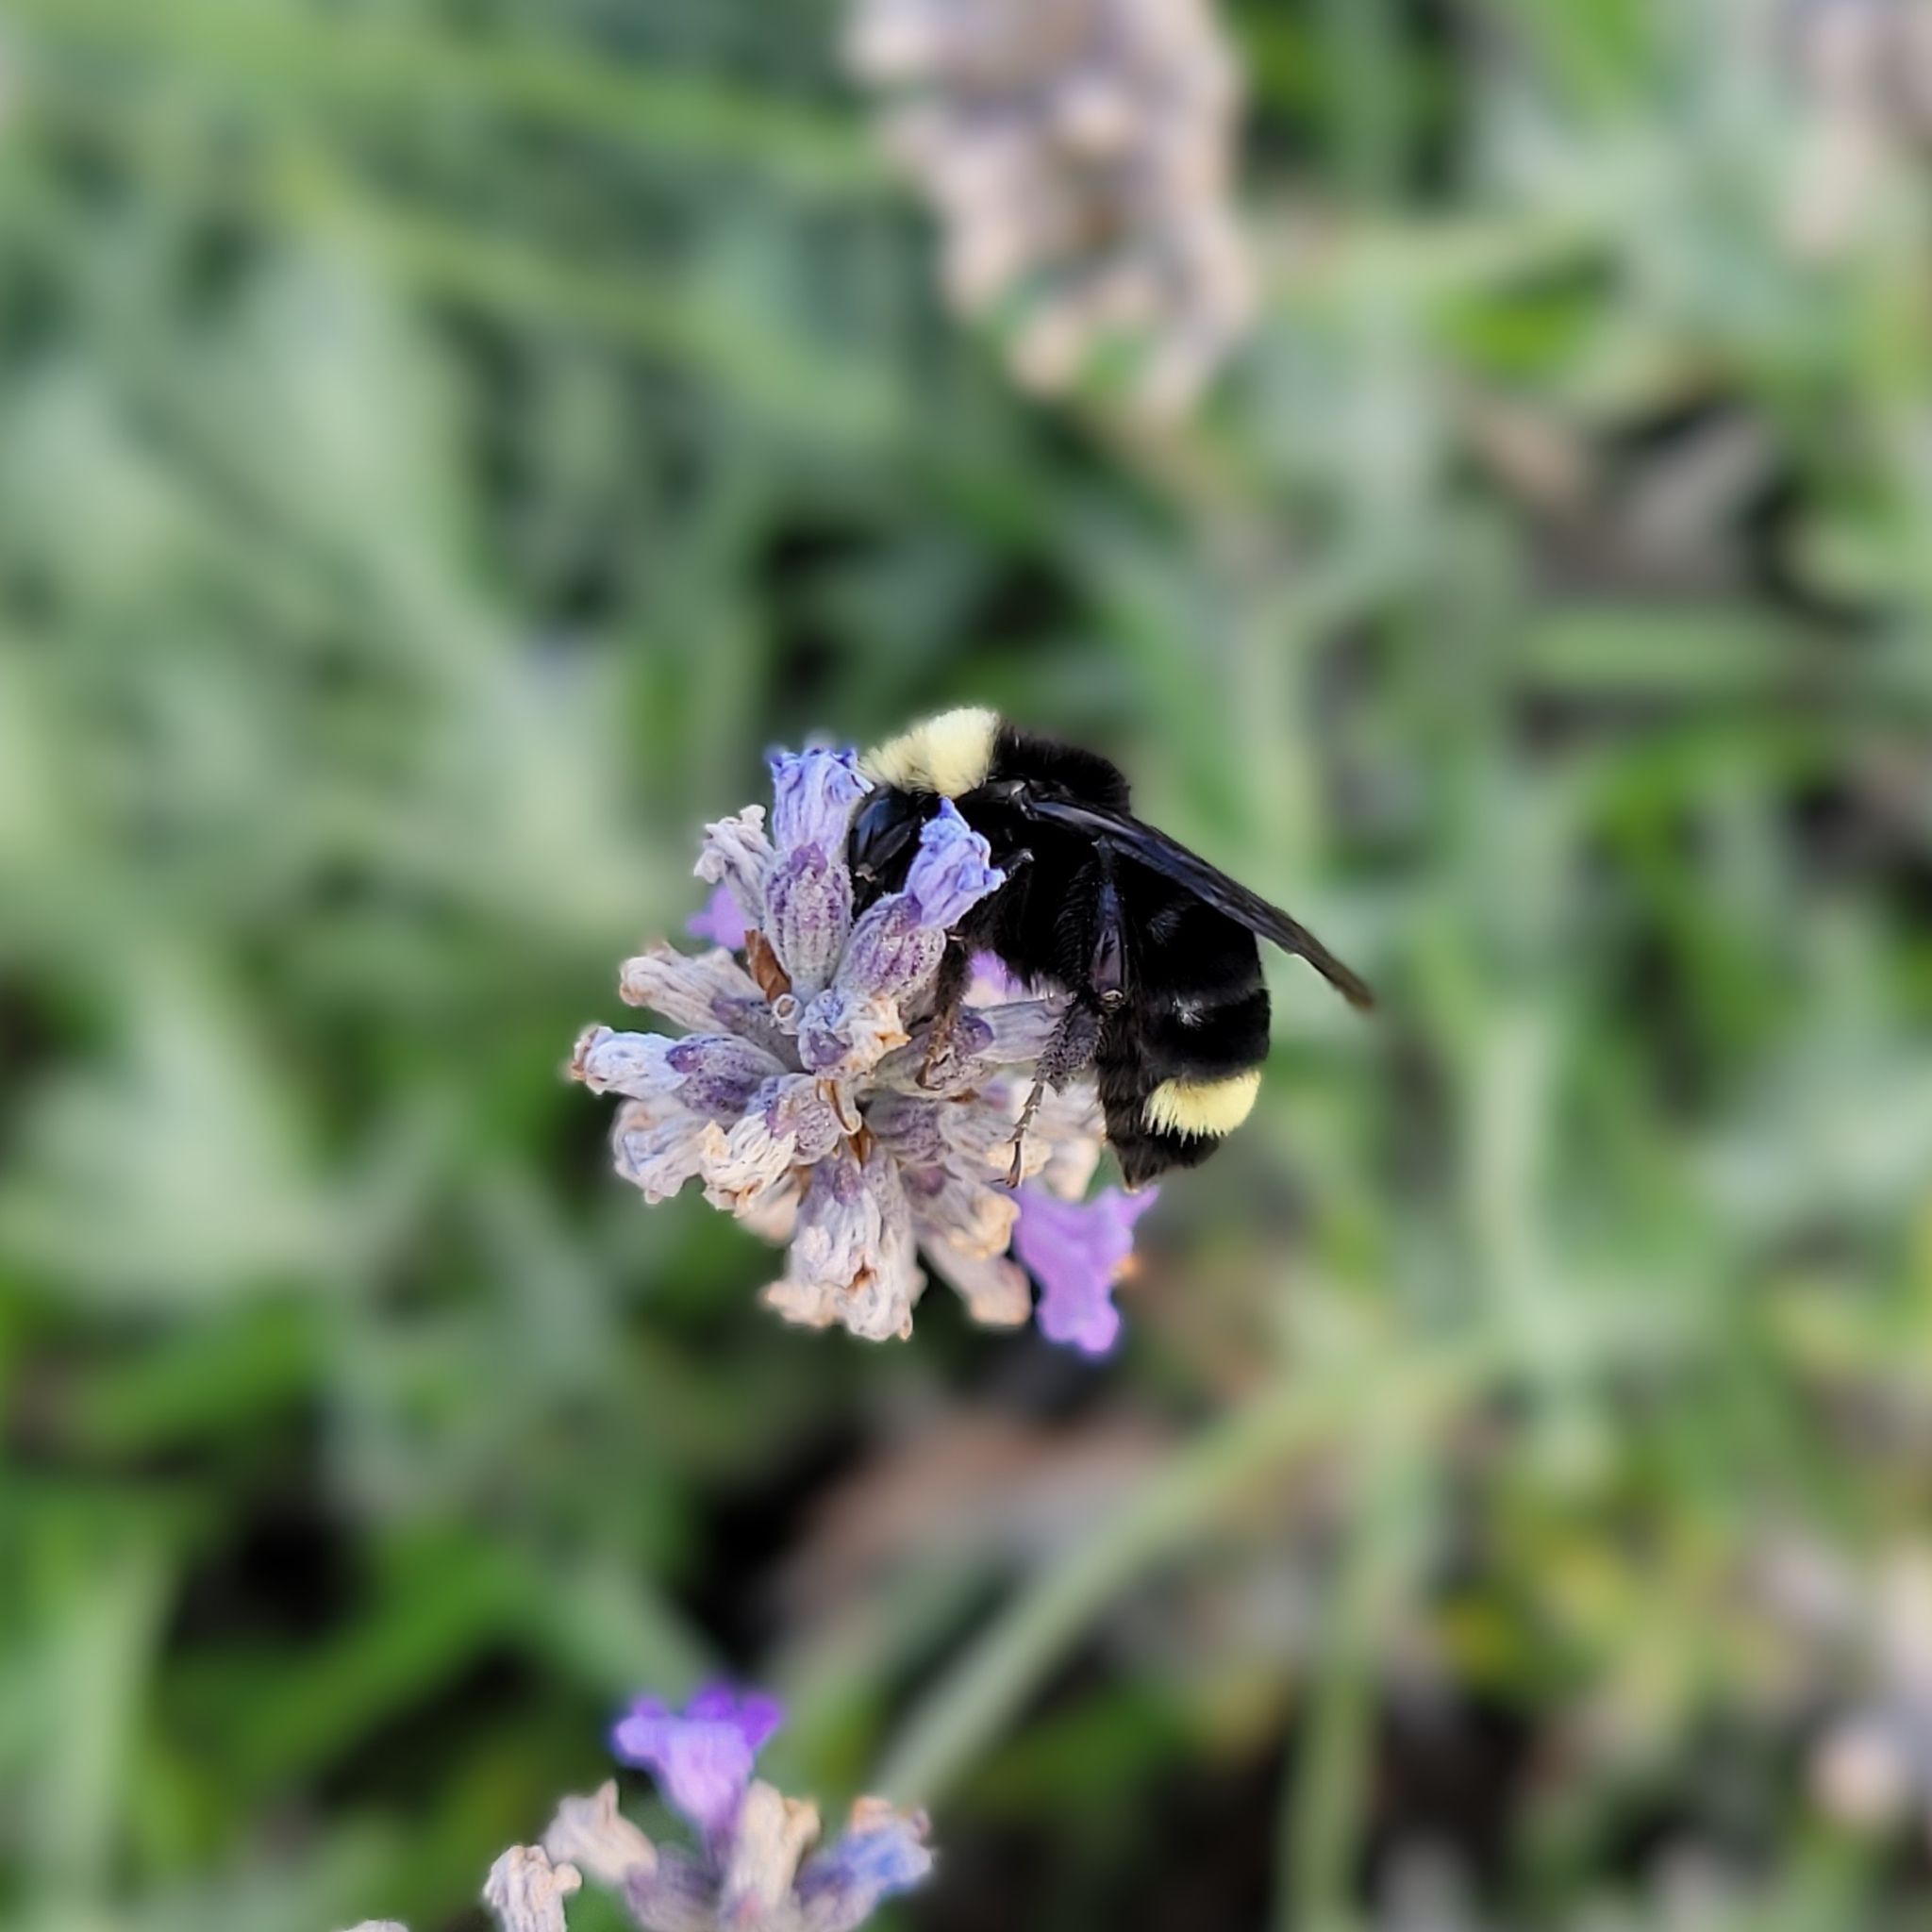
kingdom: Animalia
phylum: Arthropoda
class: Insecta
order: Hymenoptera
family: Apidae
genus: Bombus
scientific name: Bombus vosnesenskii
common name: Vosnesensky bumble bee
